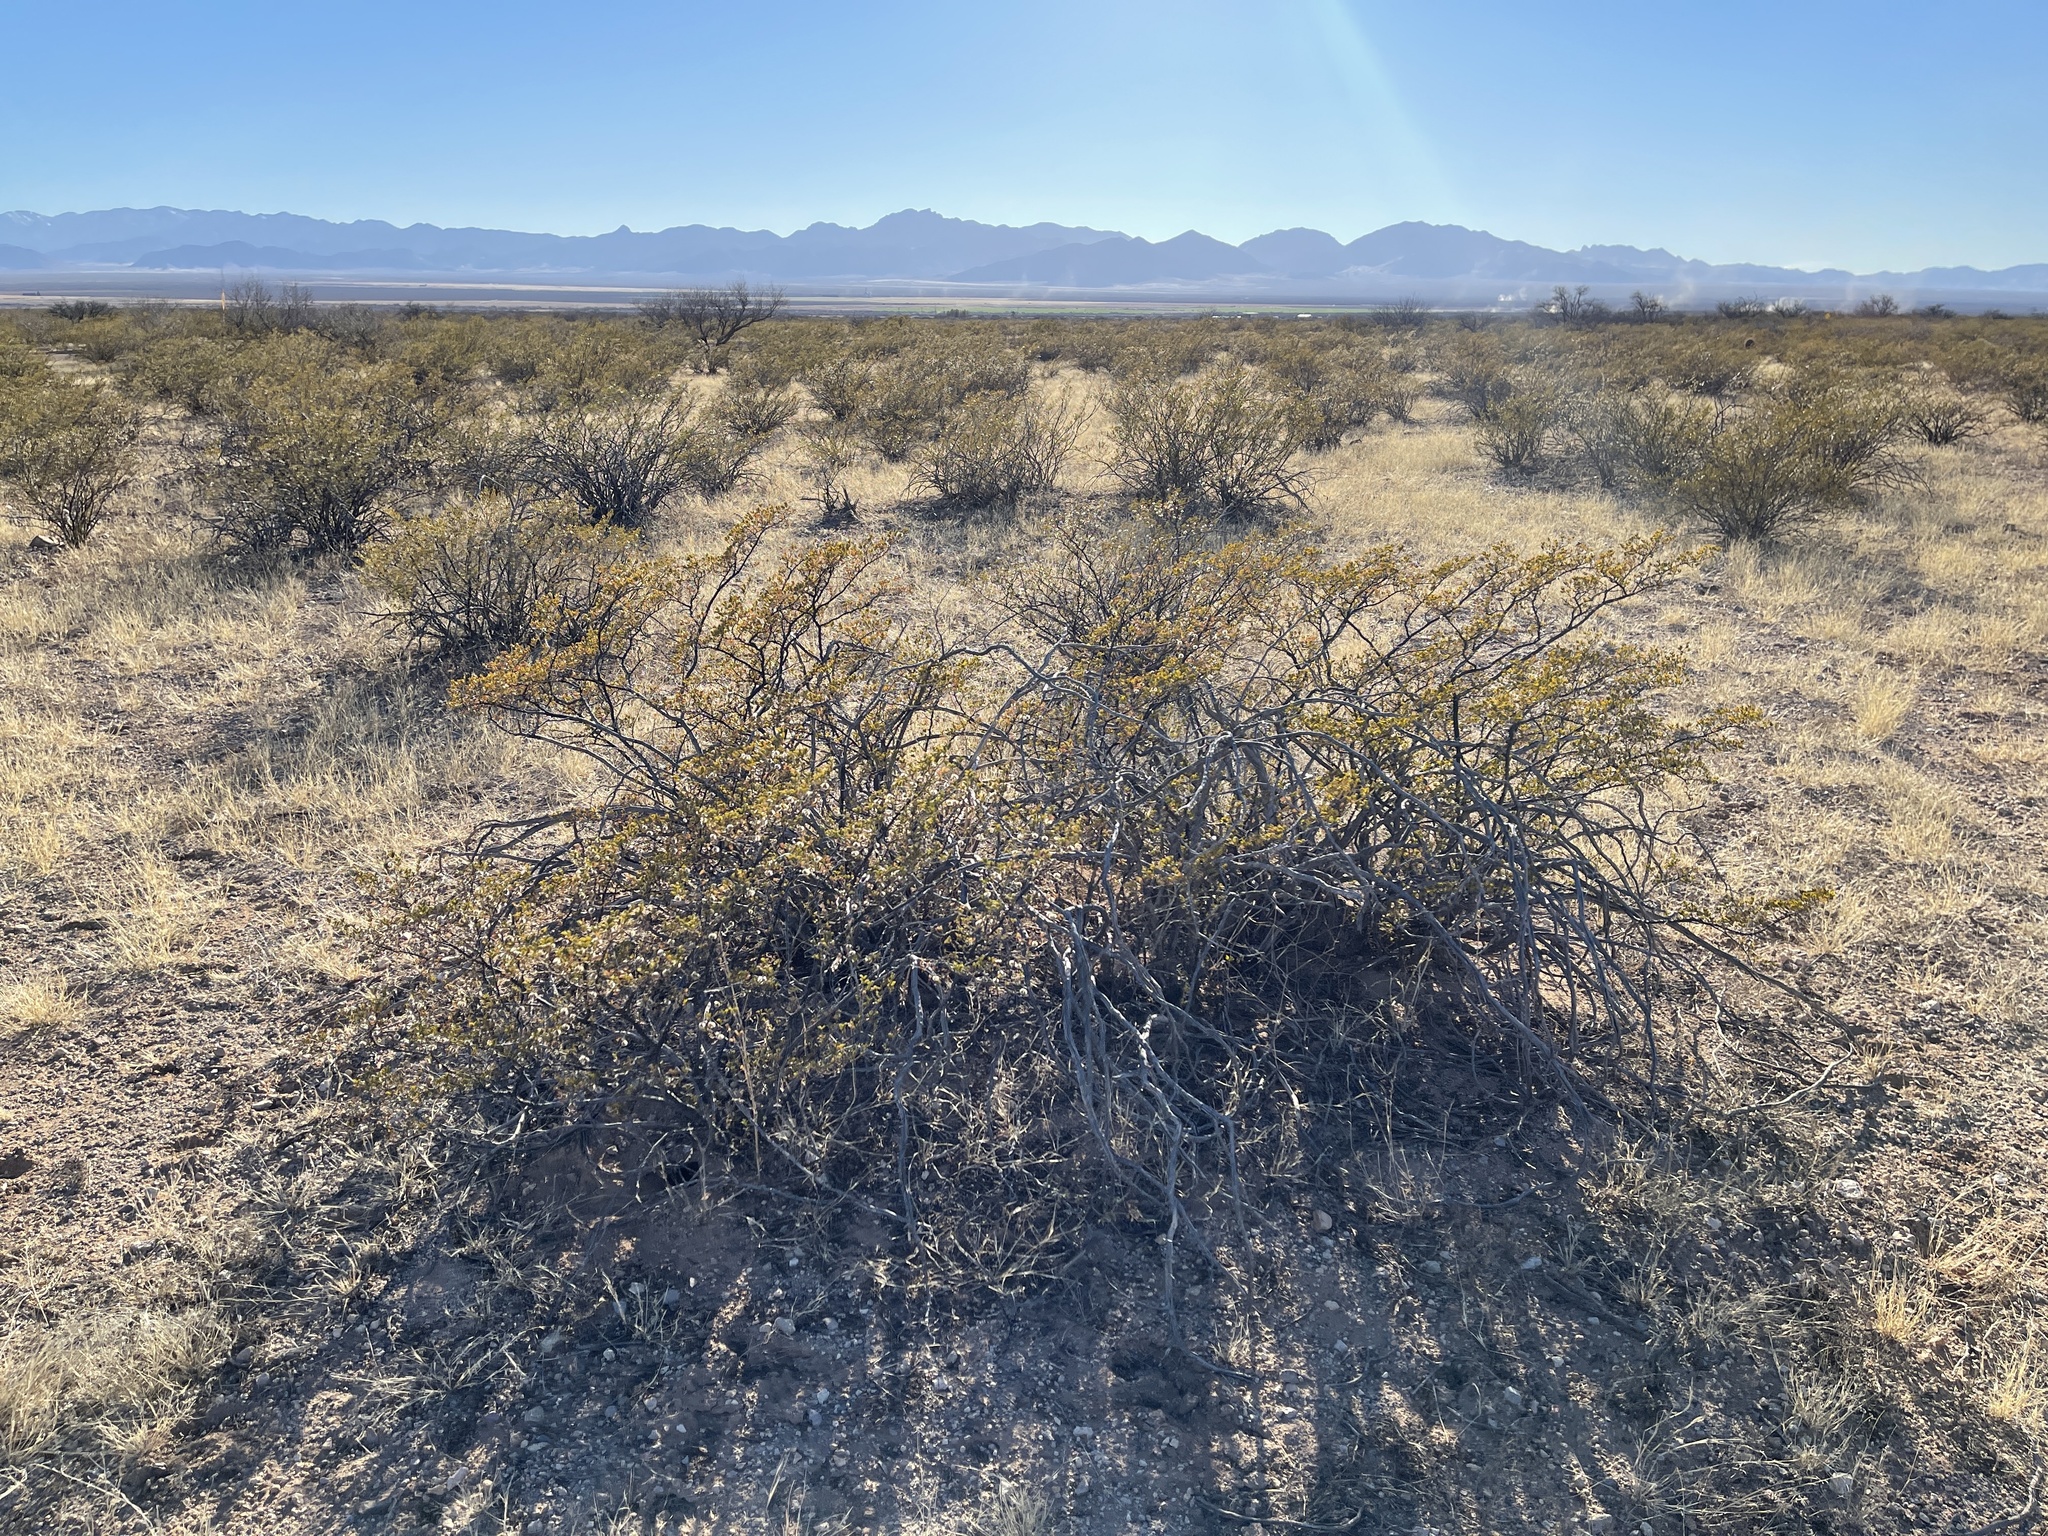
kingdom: Plantae
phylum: Tracheophyta
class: Magnoliopsida
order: Zygophyllales
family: Zygophyllaceae
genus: Larrea
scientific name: Larrea tridentata
